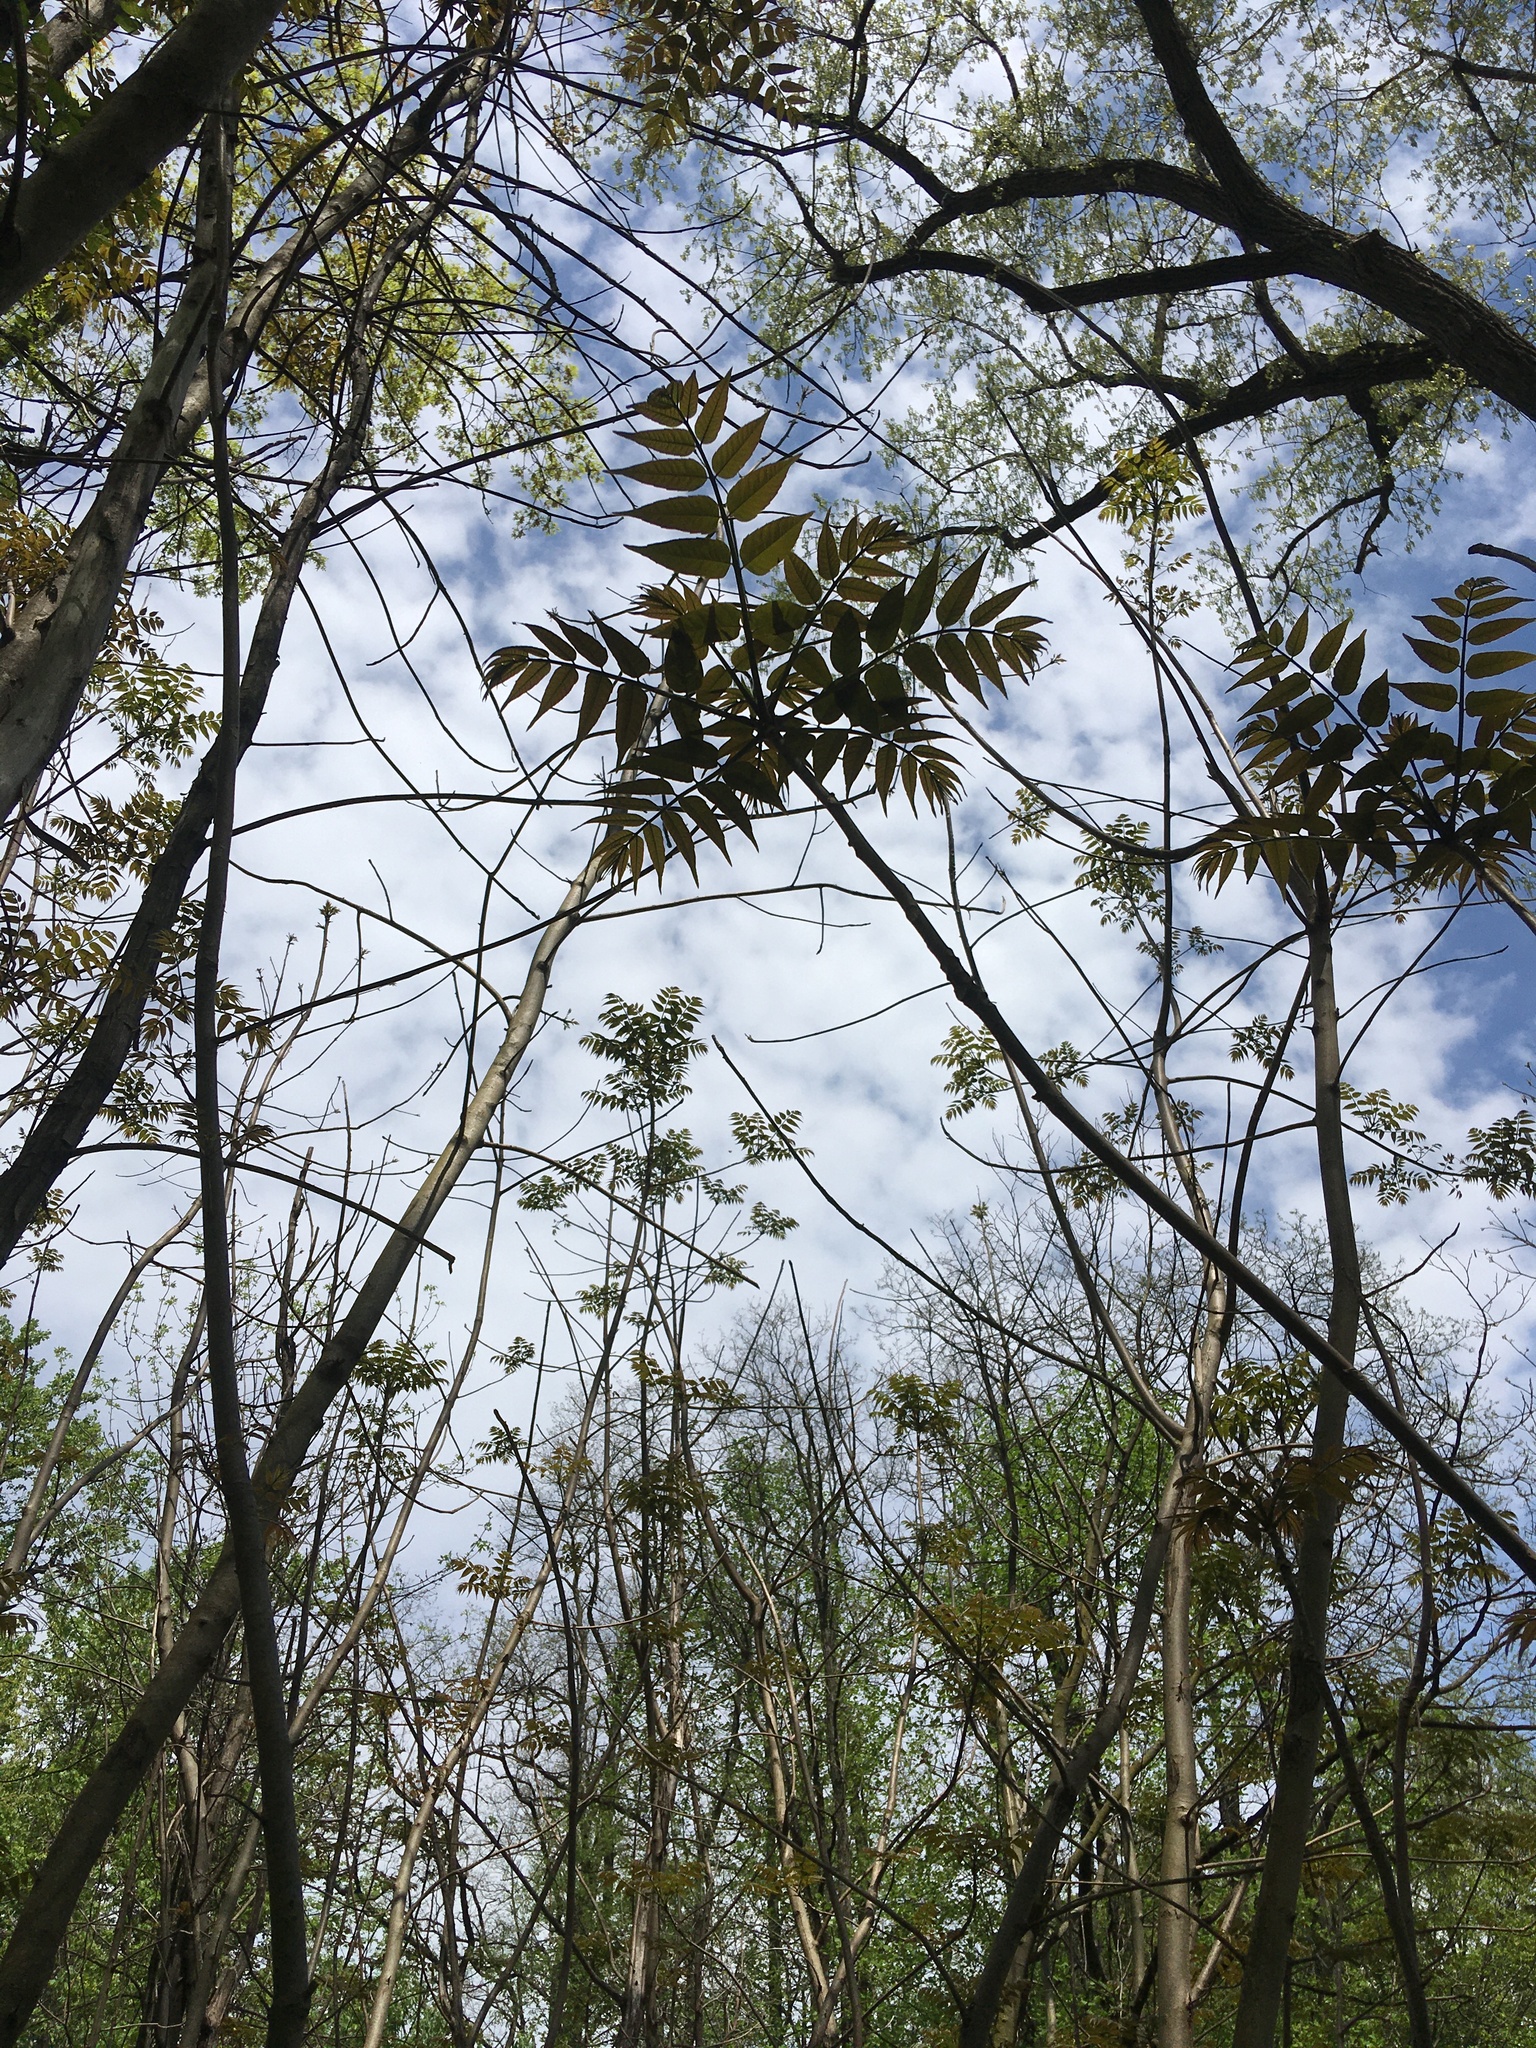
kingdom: Plantae
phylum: Tracheophyta
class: Magnoliopsida
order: Sapindales
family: Meliaceae
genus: Toona
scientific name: Toona sinensis
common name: Red toon
